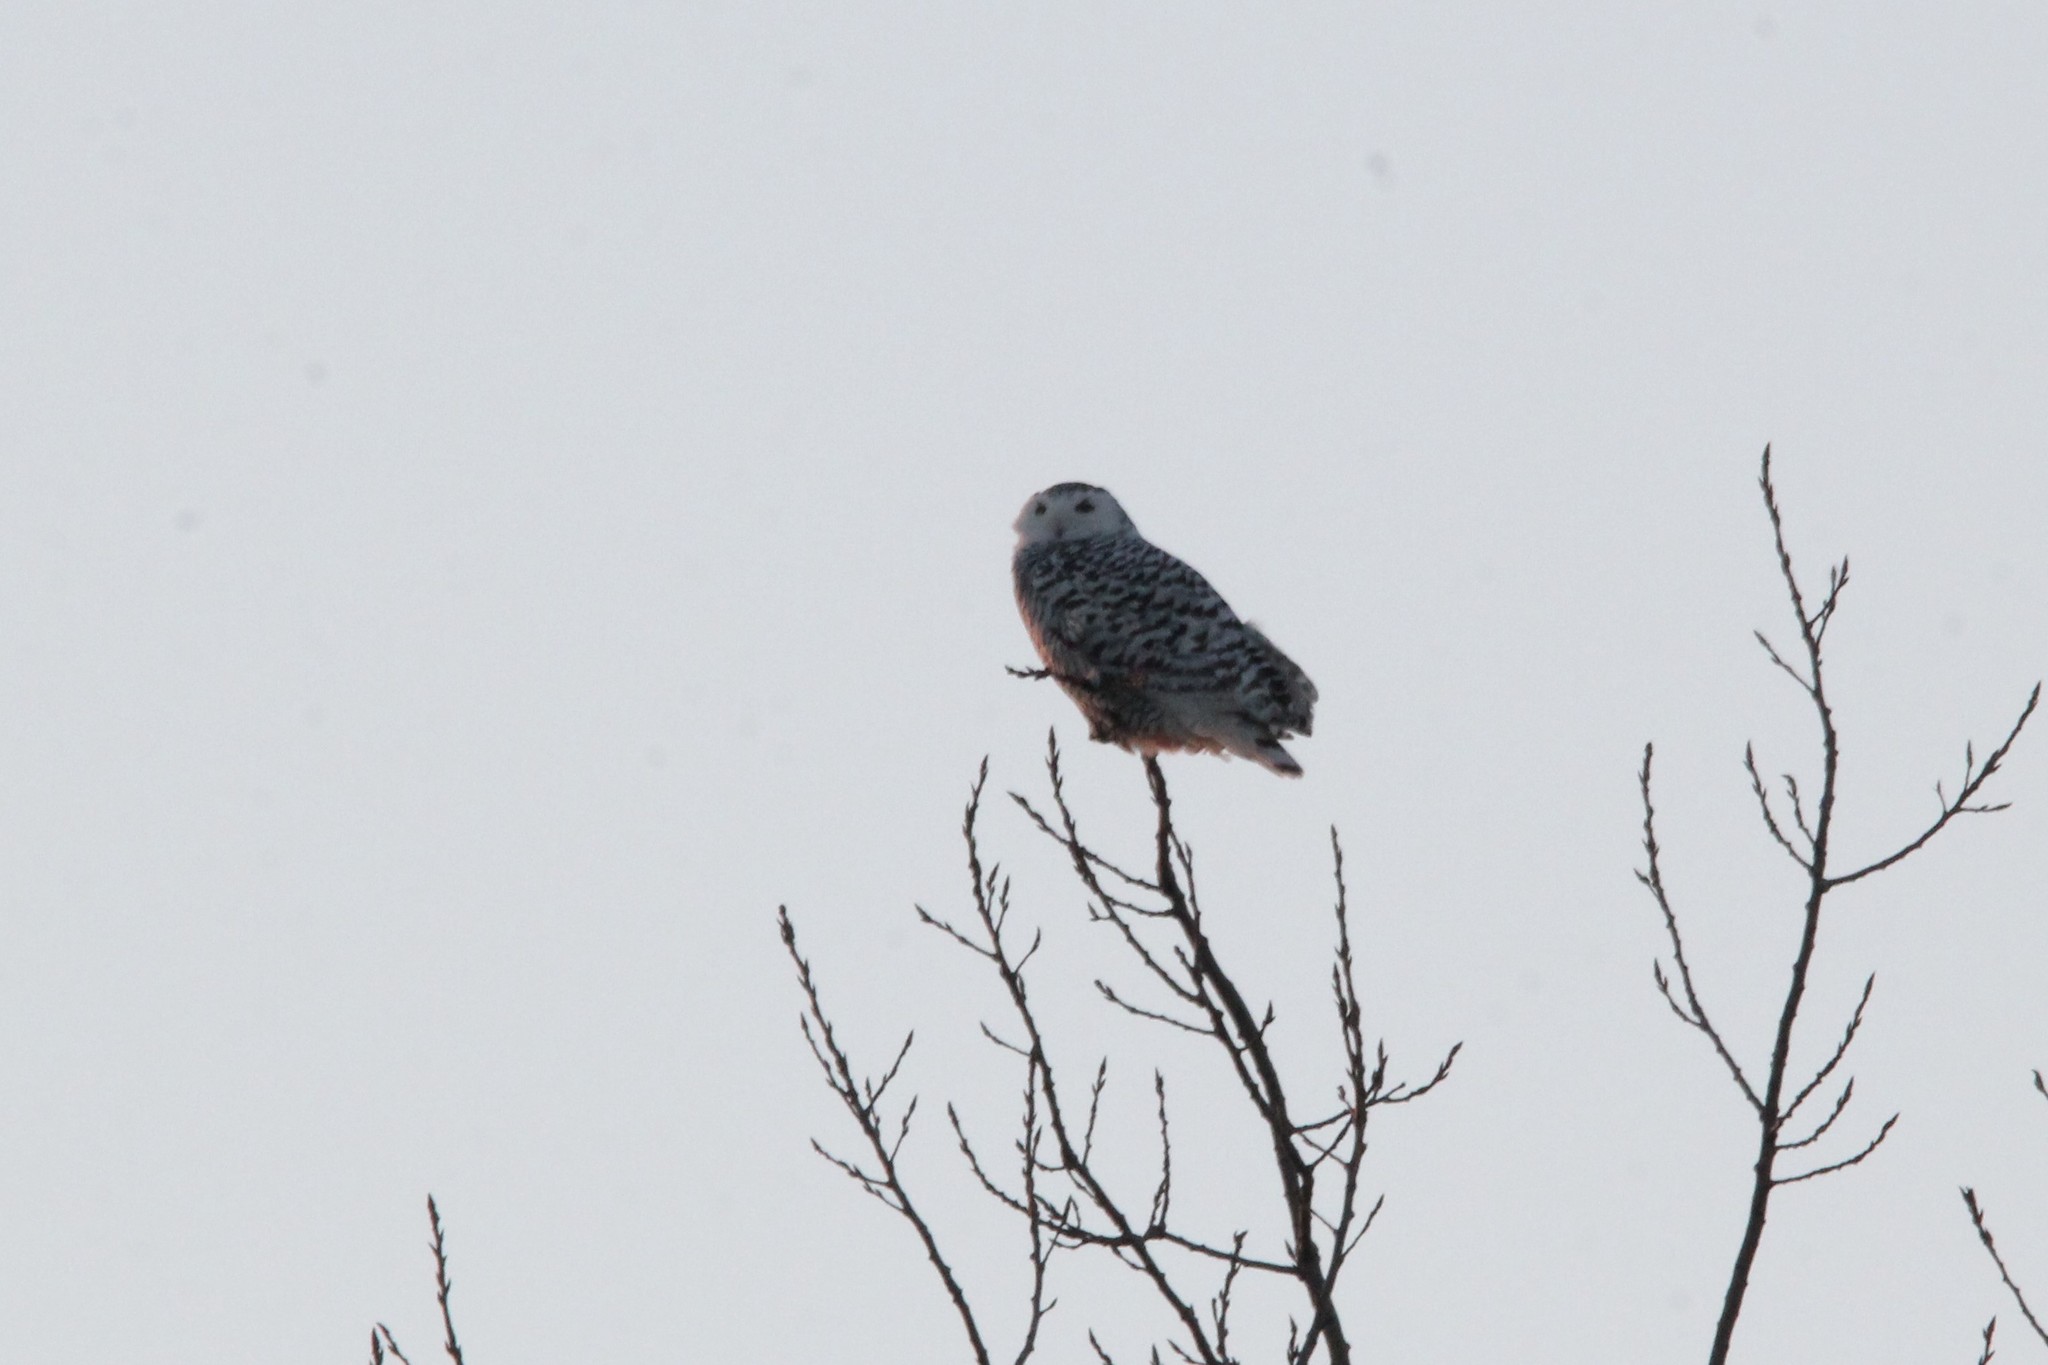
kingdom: Animalia
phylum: Chordata
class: Aves
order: Strigiformes
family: Strigidae
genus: Bubo
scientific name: Bubo scandiacus
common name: Snowy owl
